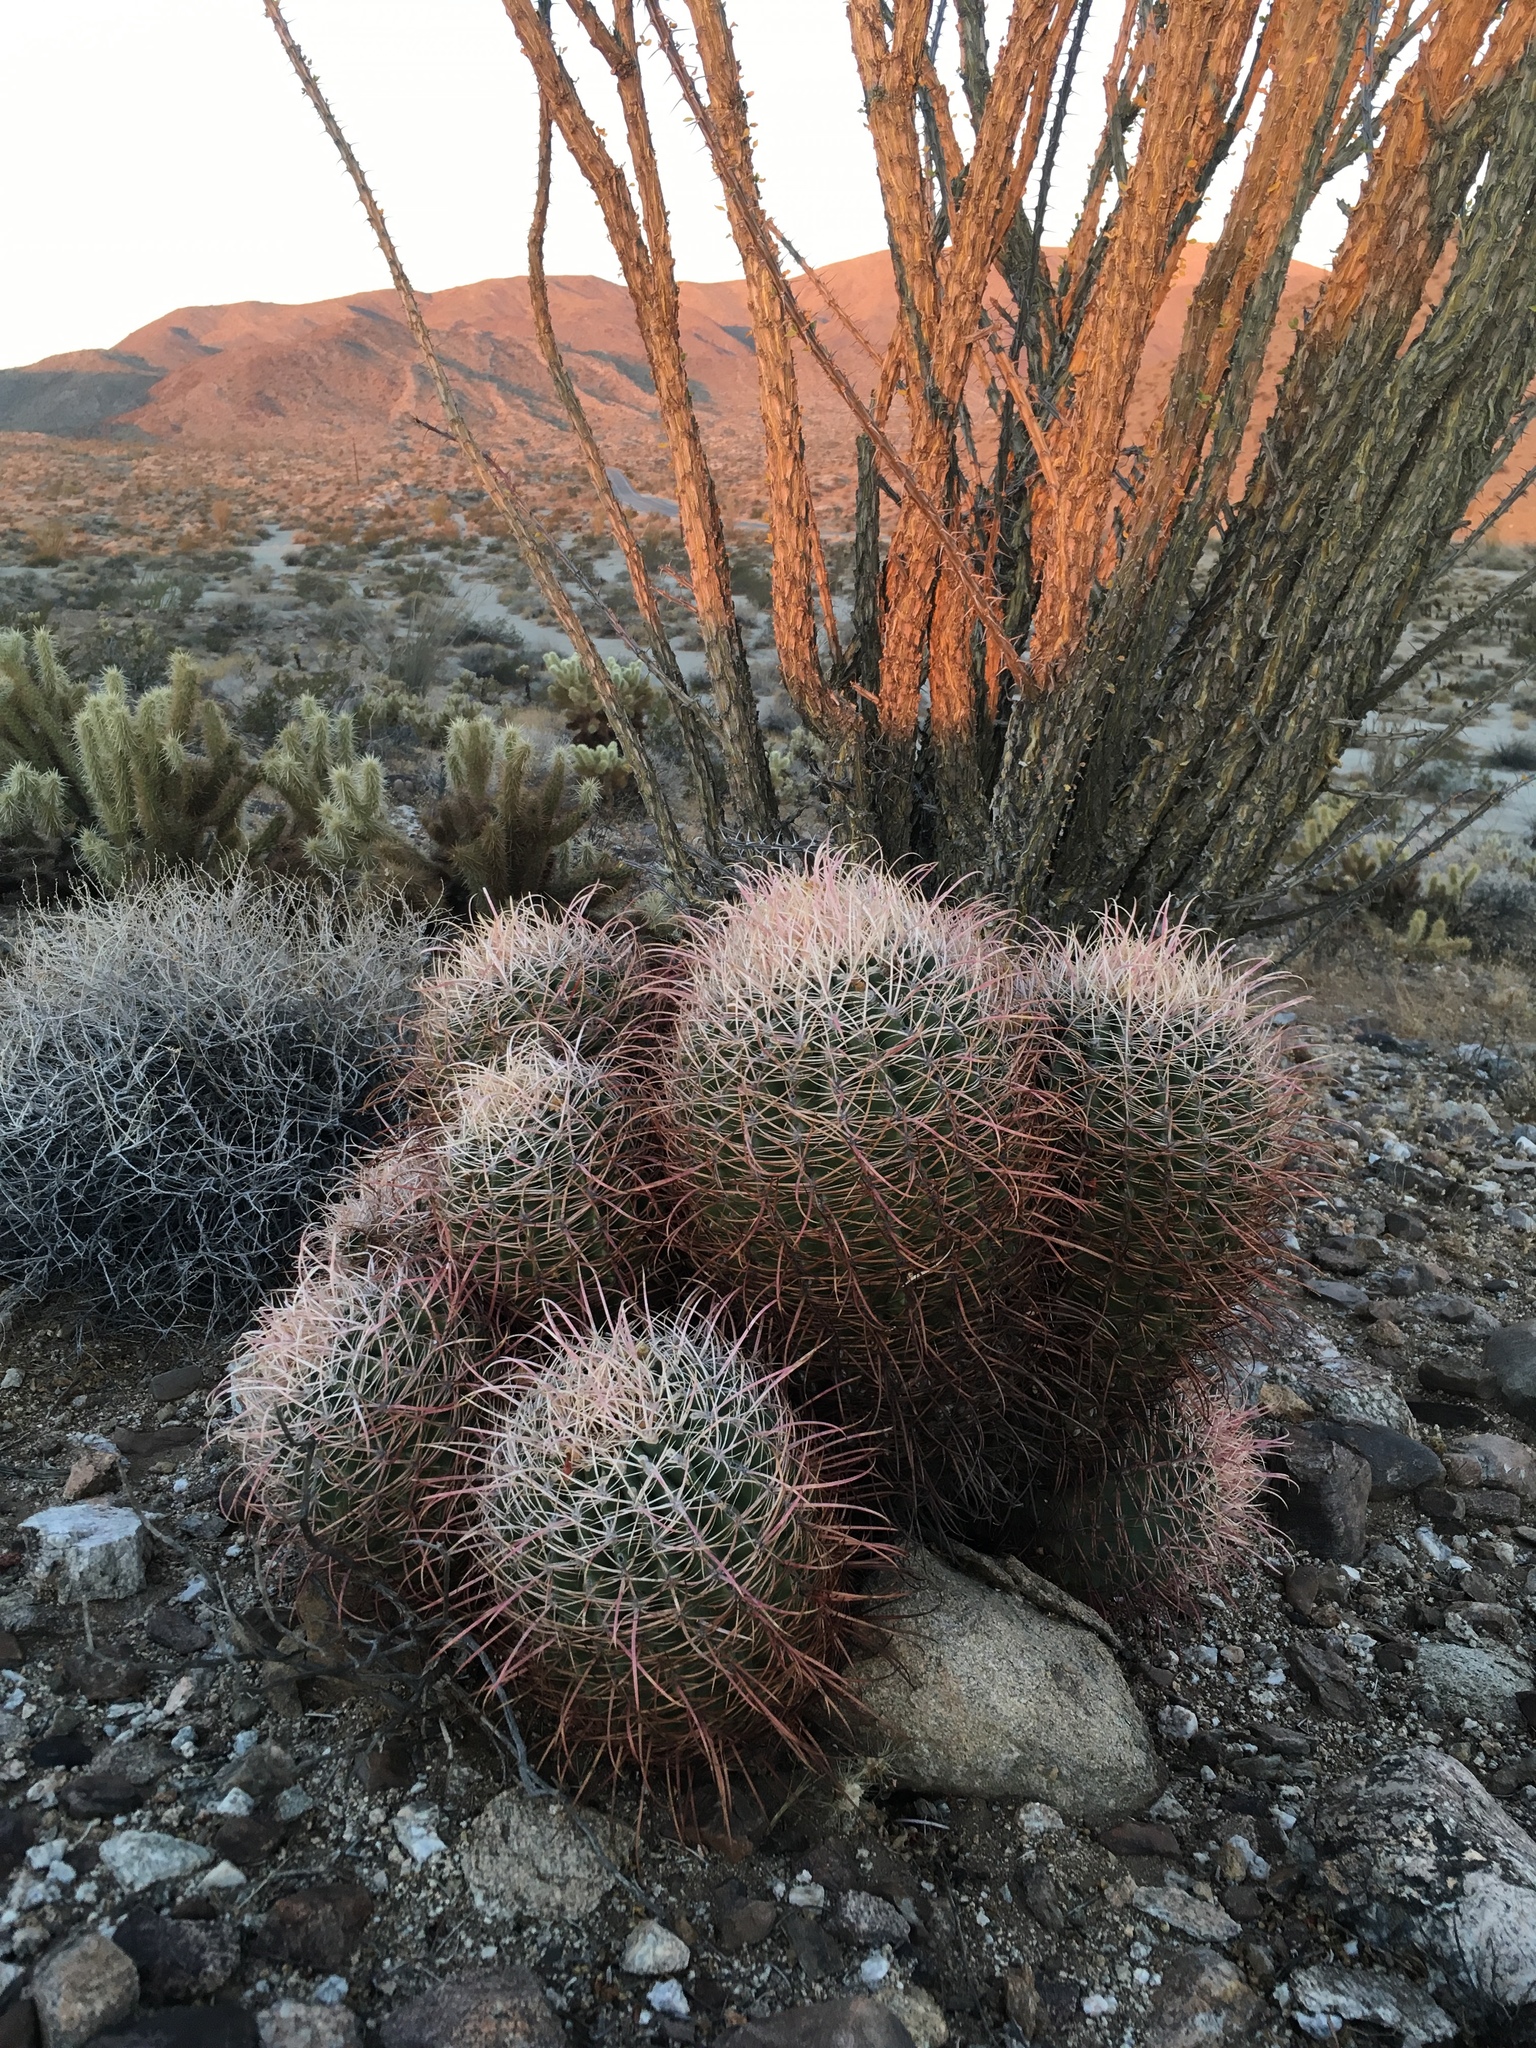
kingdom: Plantae
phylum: Tracheophyta
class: Magnoliopsida
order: Caryophyllales
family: Cactaceae
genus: Ferocactus
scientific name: Ferocactus cylindraceus
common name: California barrel cactus
